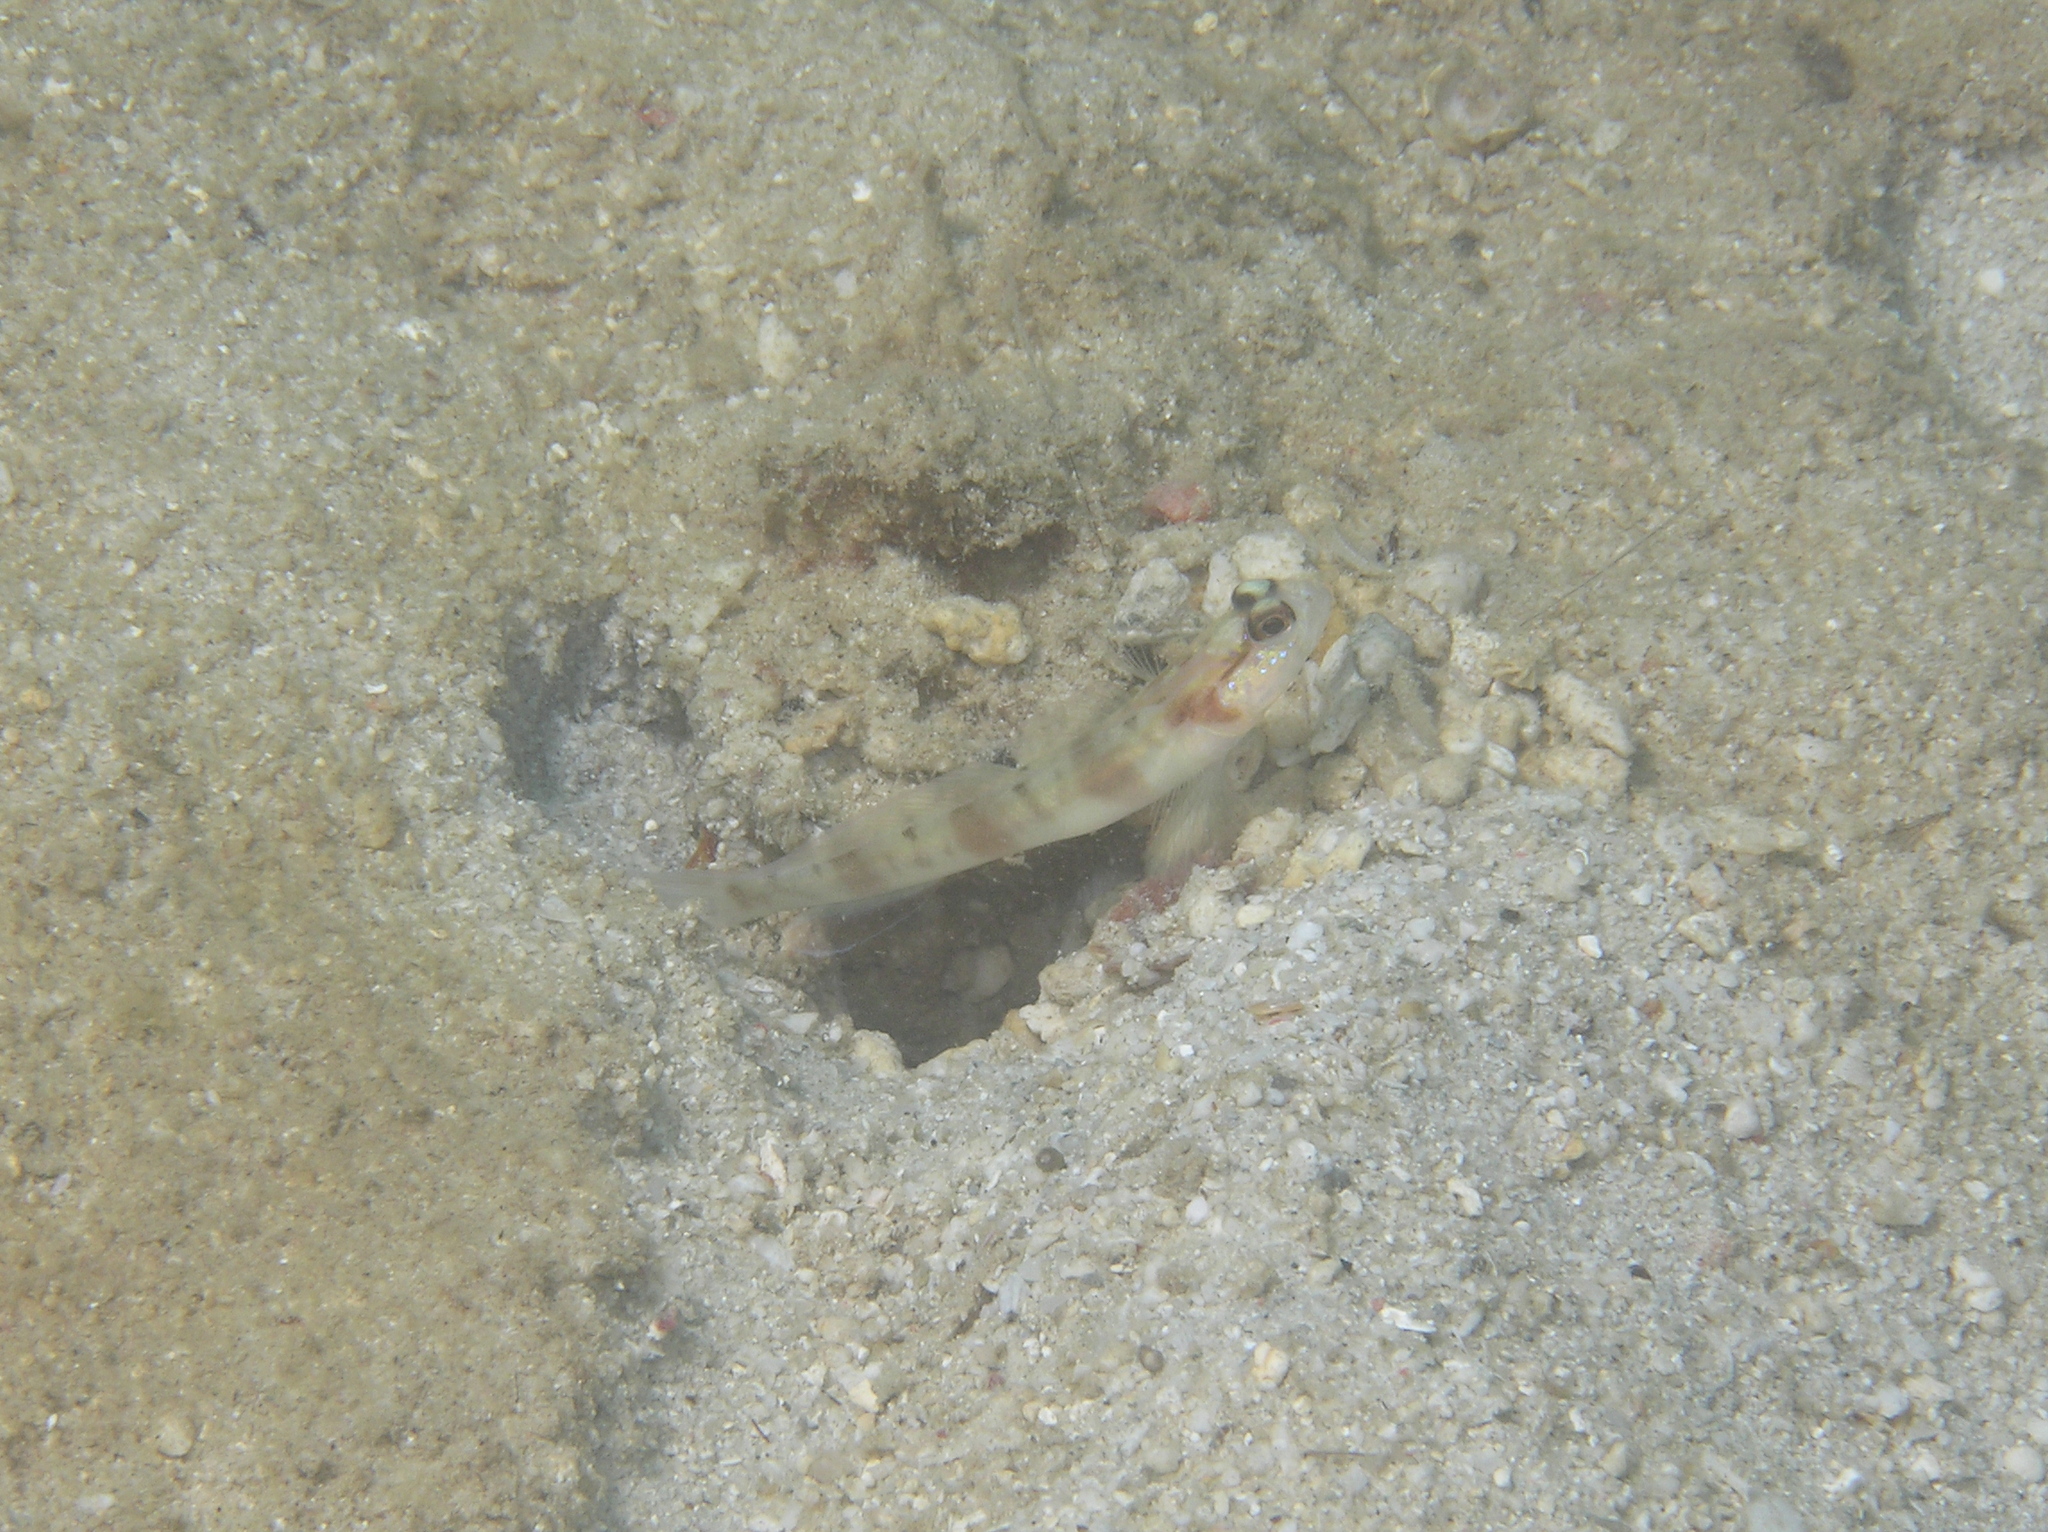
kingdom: Animalia
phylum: Chordata
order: Perciformes
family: Gobiidae
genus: Amblyeleotris
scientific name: Amblyeleotris gymnocephala
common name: Masked shrimpgoby
